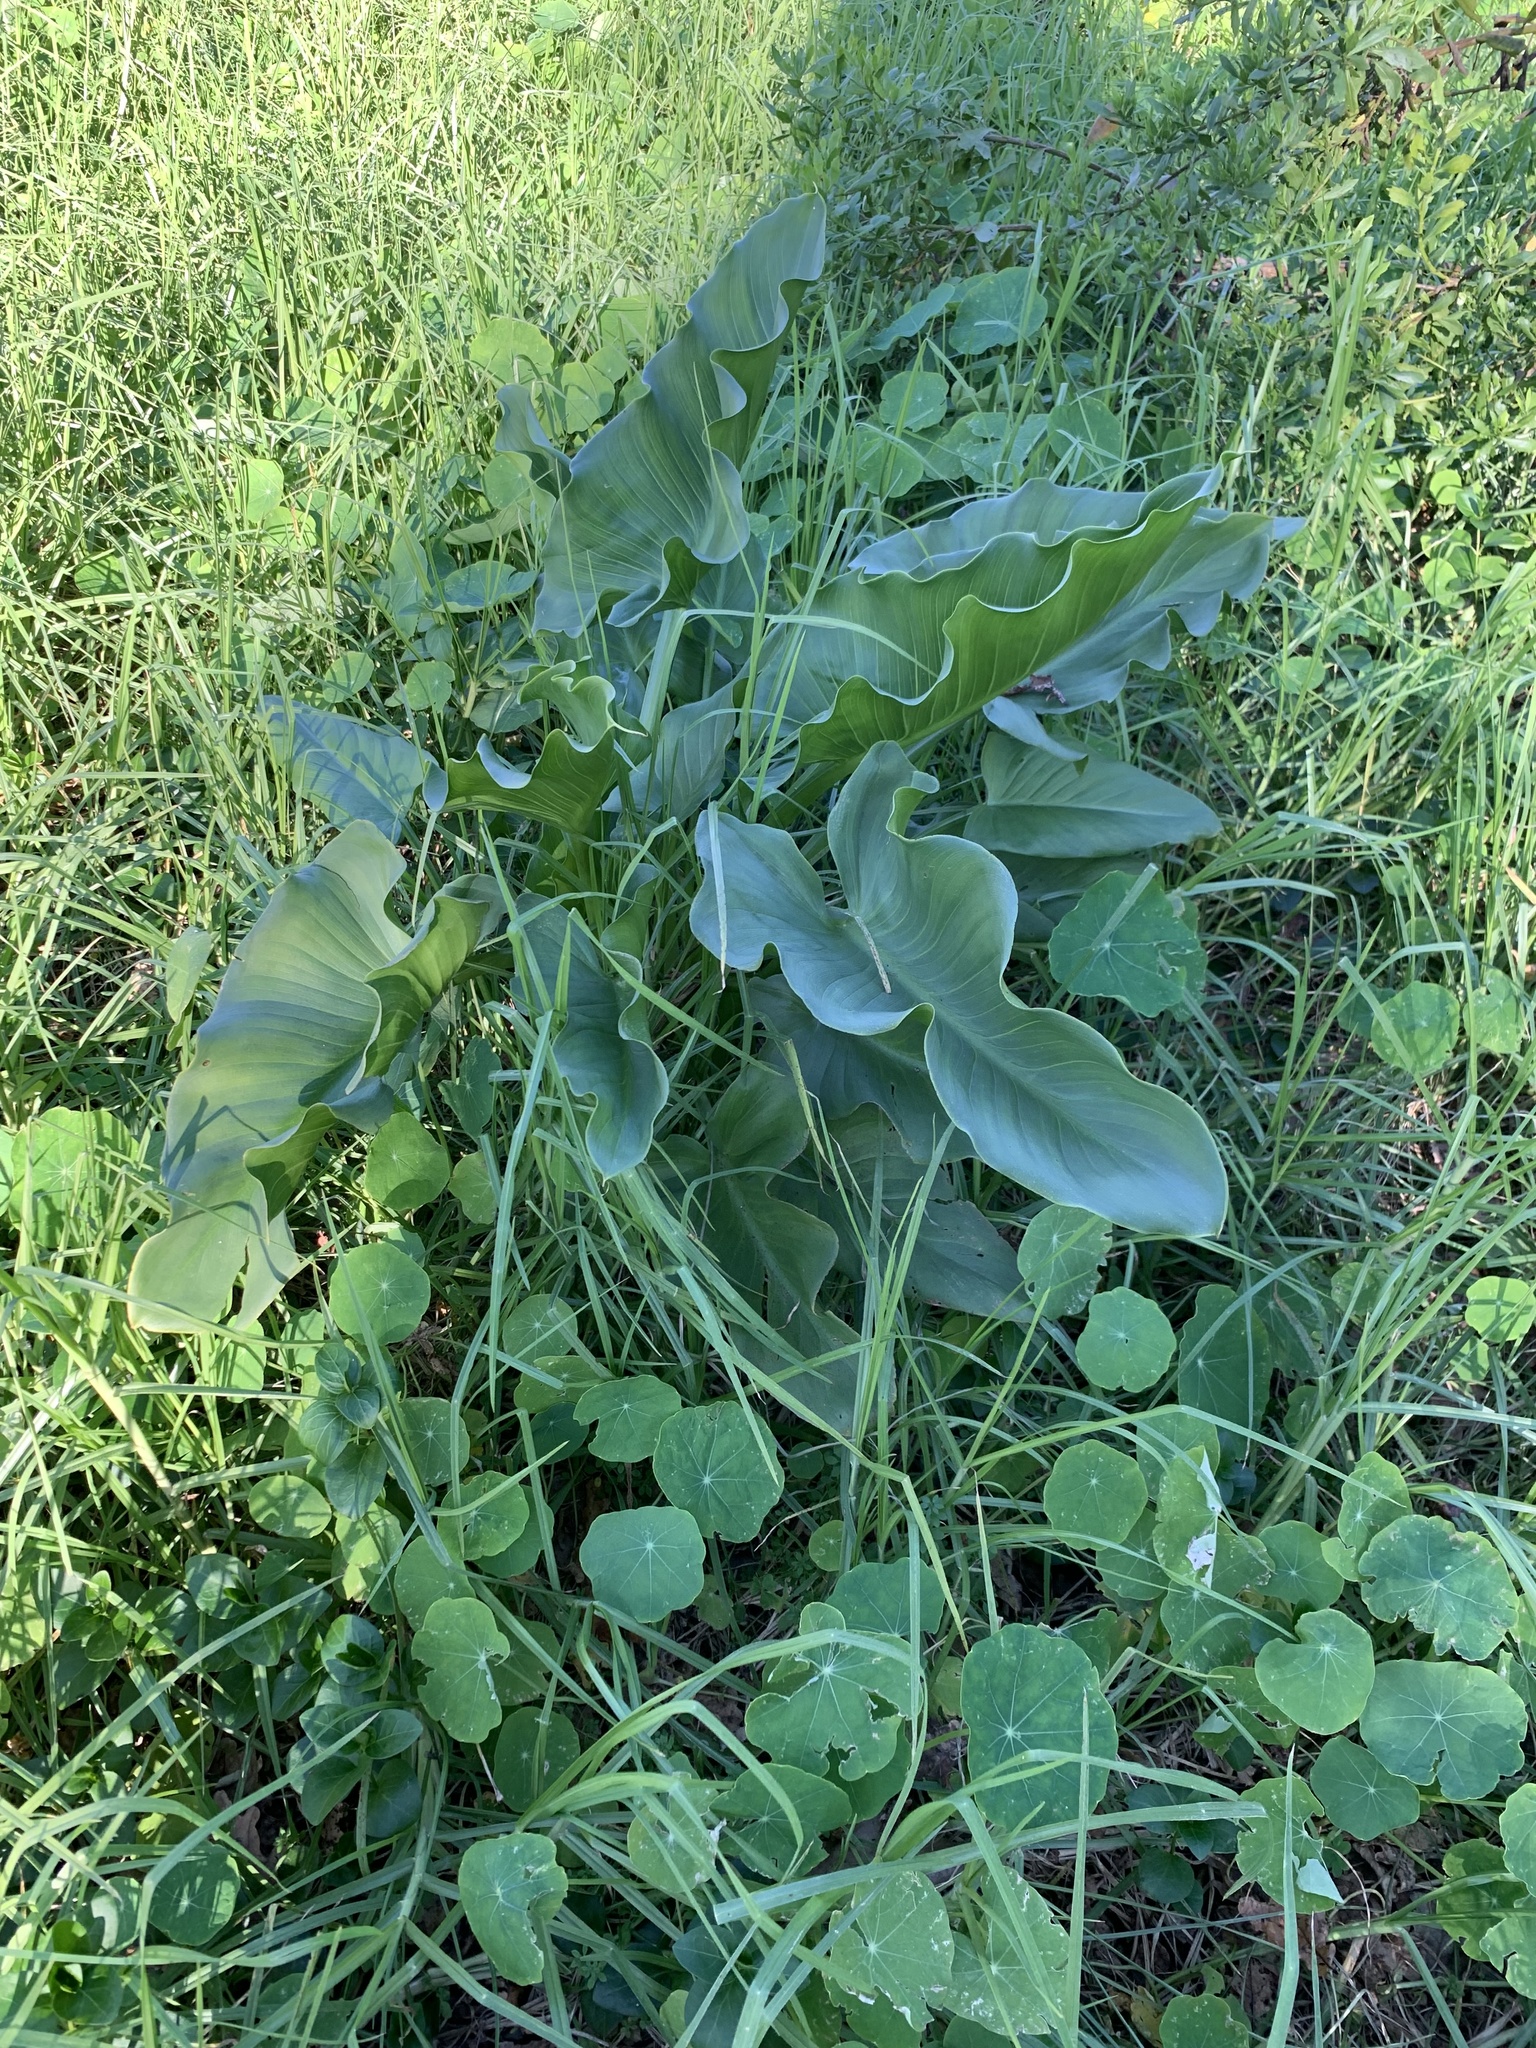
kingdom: Plantae
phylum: Tracheophyta
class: Liliopsida
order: Alismatales
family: Araceae
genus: Zantedeschia
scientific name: Zantedeschia aethiopica
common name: Altar-lily
